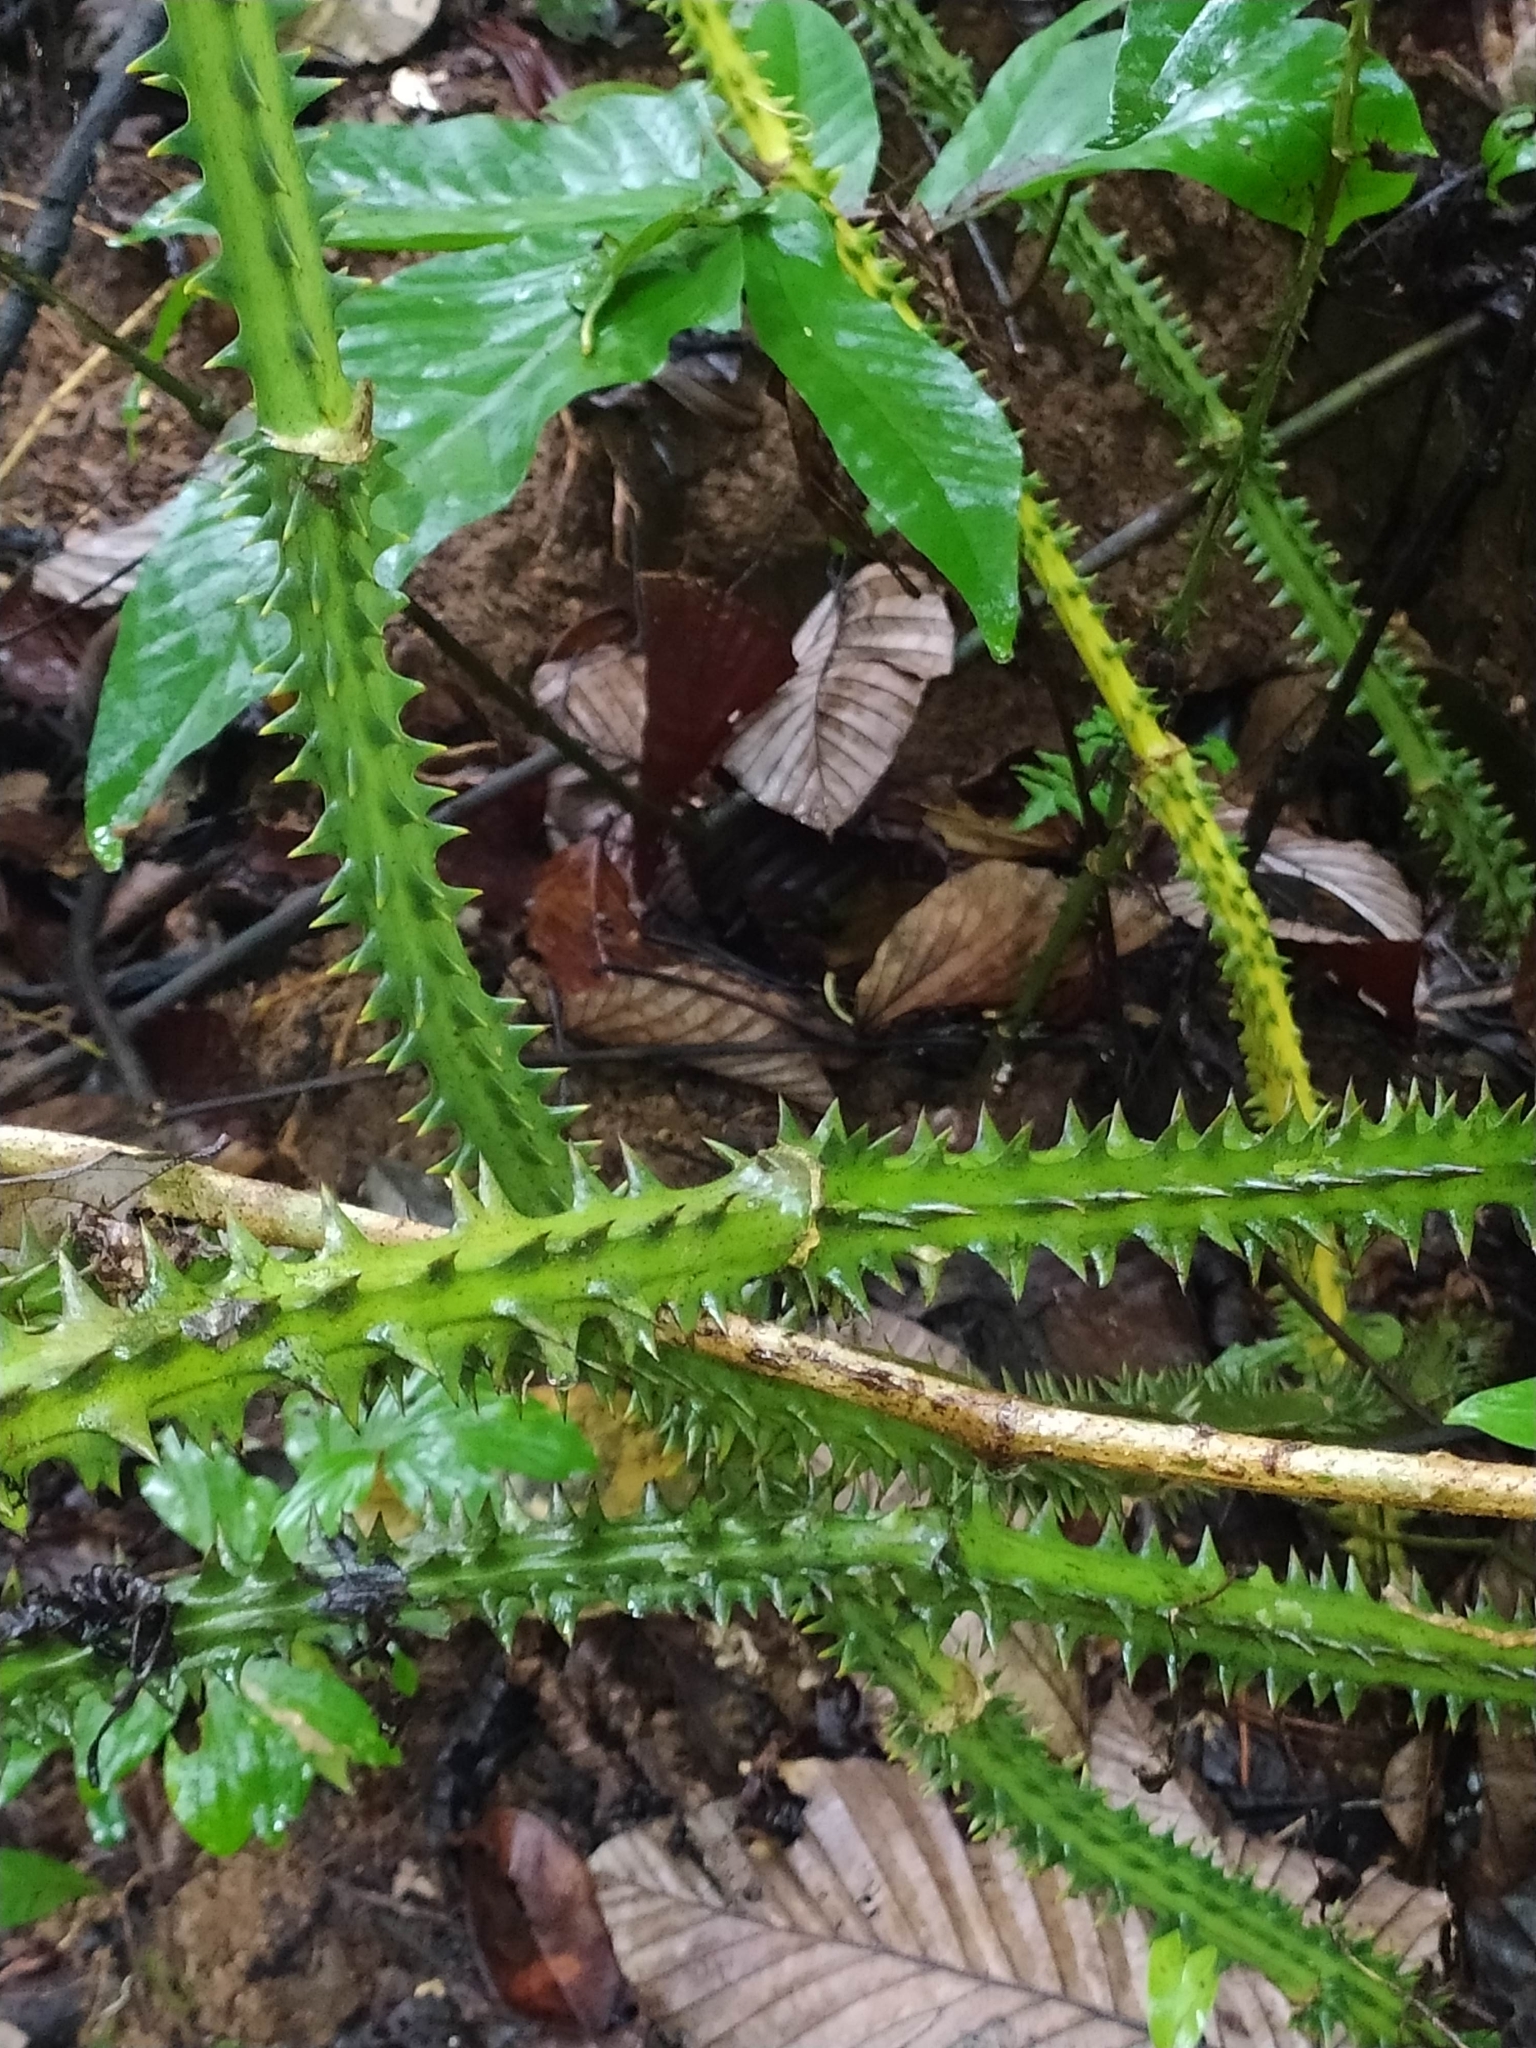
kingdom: Plantae
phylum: Tracheophyta
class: Liliopsida
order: Liliales
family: Smilacaceae
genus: Smilax
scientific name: Smilax siphilitica
